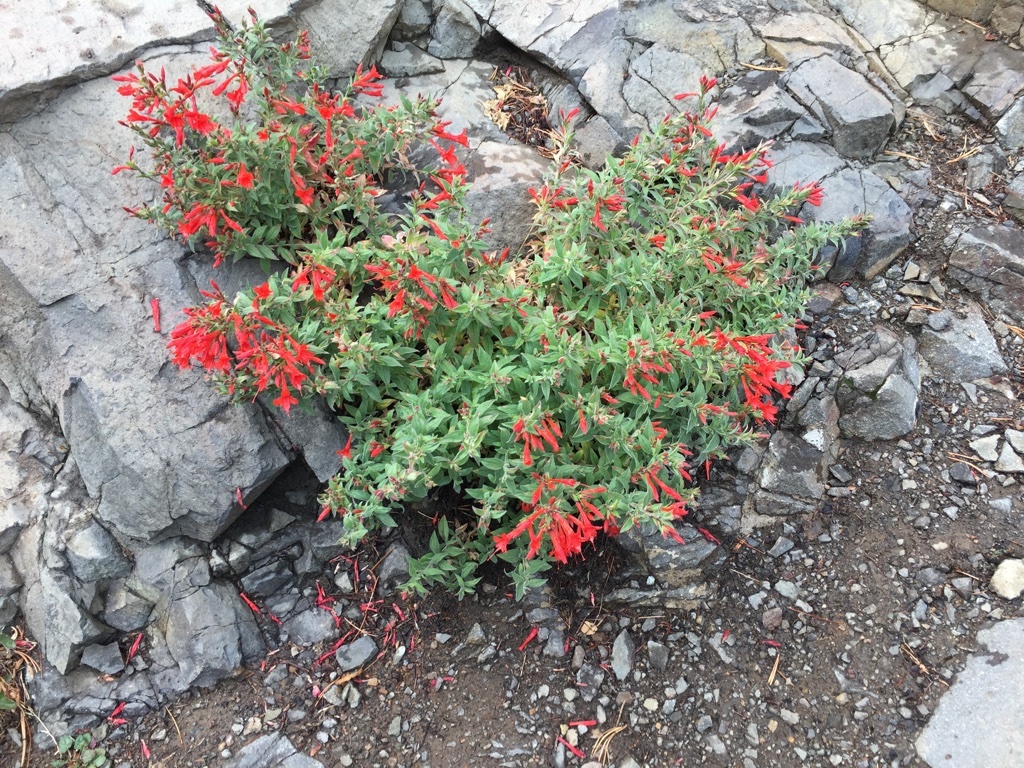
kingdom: Plantae
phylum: Tracheophyta
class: Magnoliopsida
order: Myrtales
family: Onagraceae
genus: Epilobium
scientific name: Epilobium canum
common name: California-fuchsia
